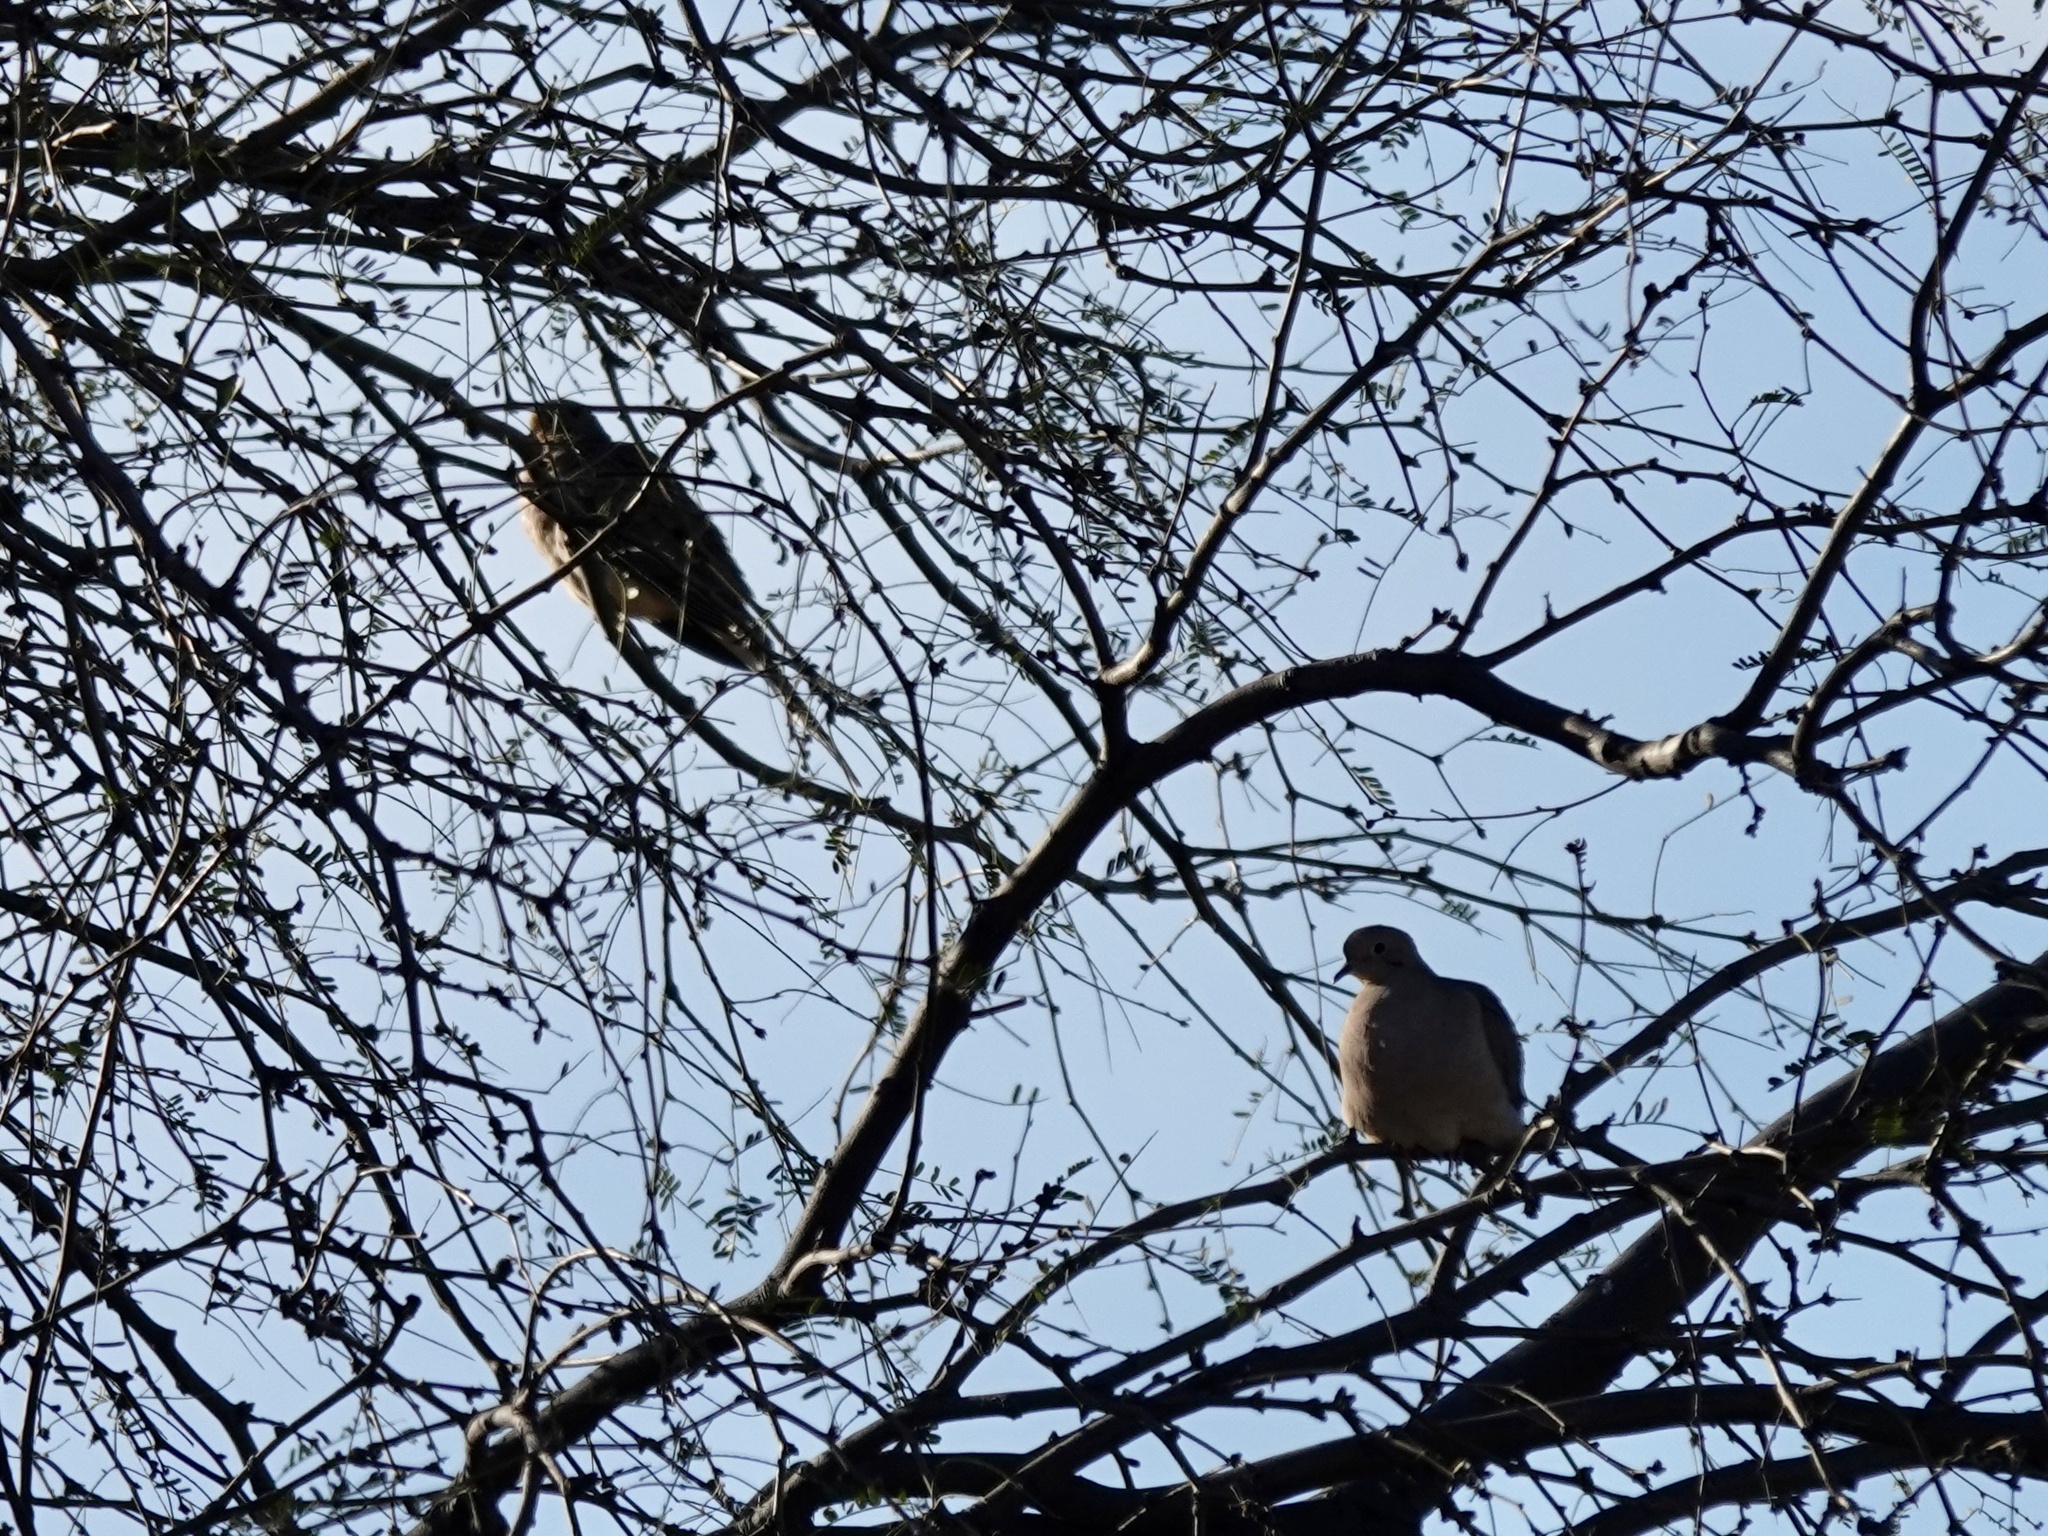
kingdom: Animalia
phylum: Chordata
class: Aves
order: Columbiformes
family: Columbidae
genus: Zenaida
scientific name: Zenaida macroura
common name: Mourning dove
